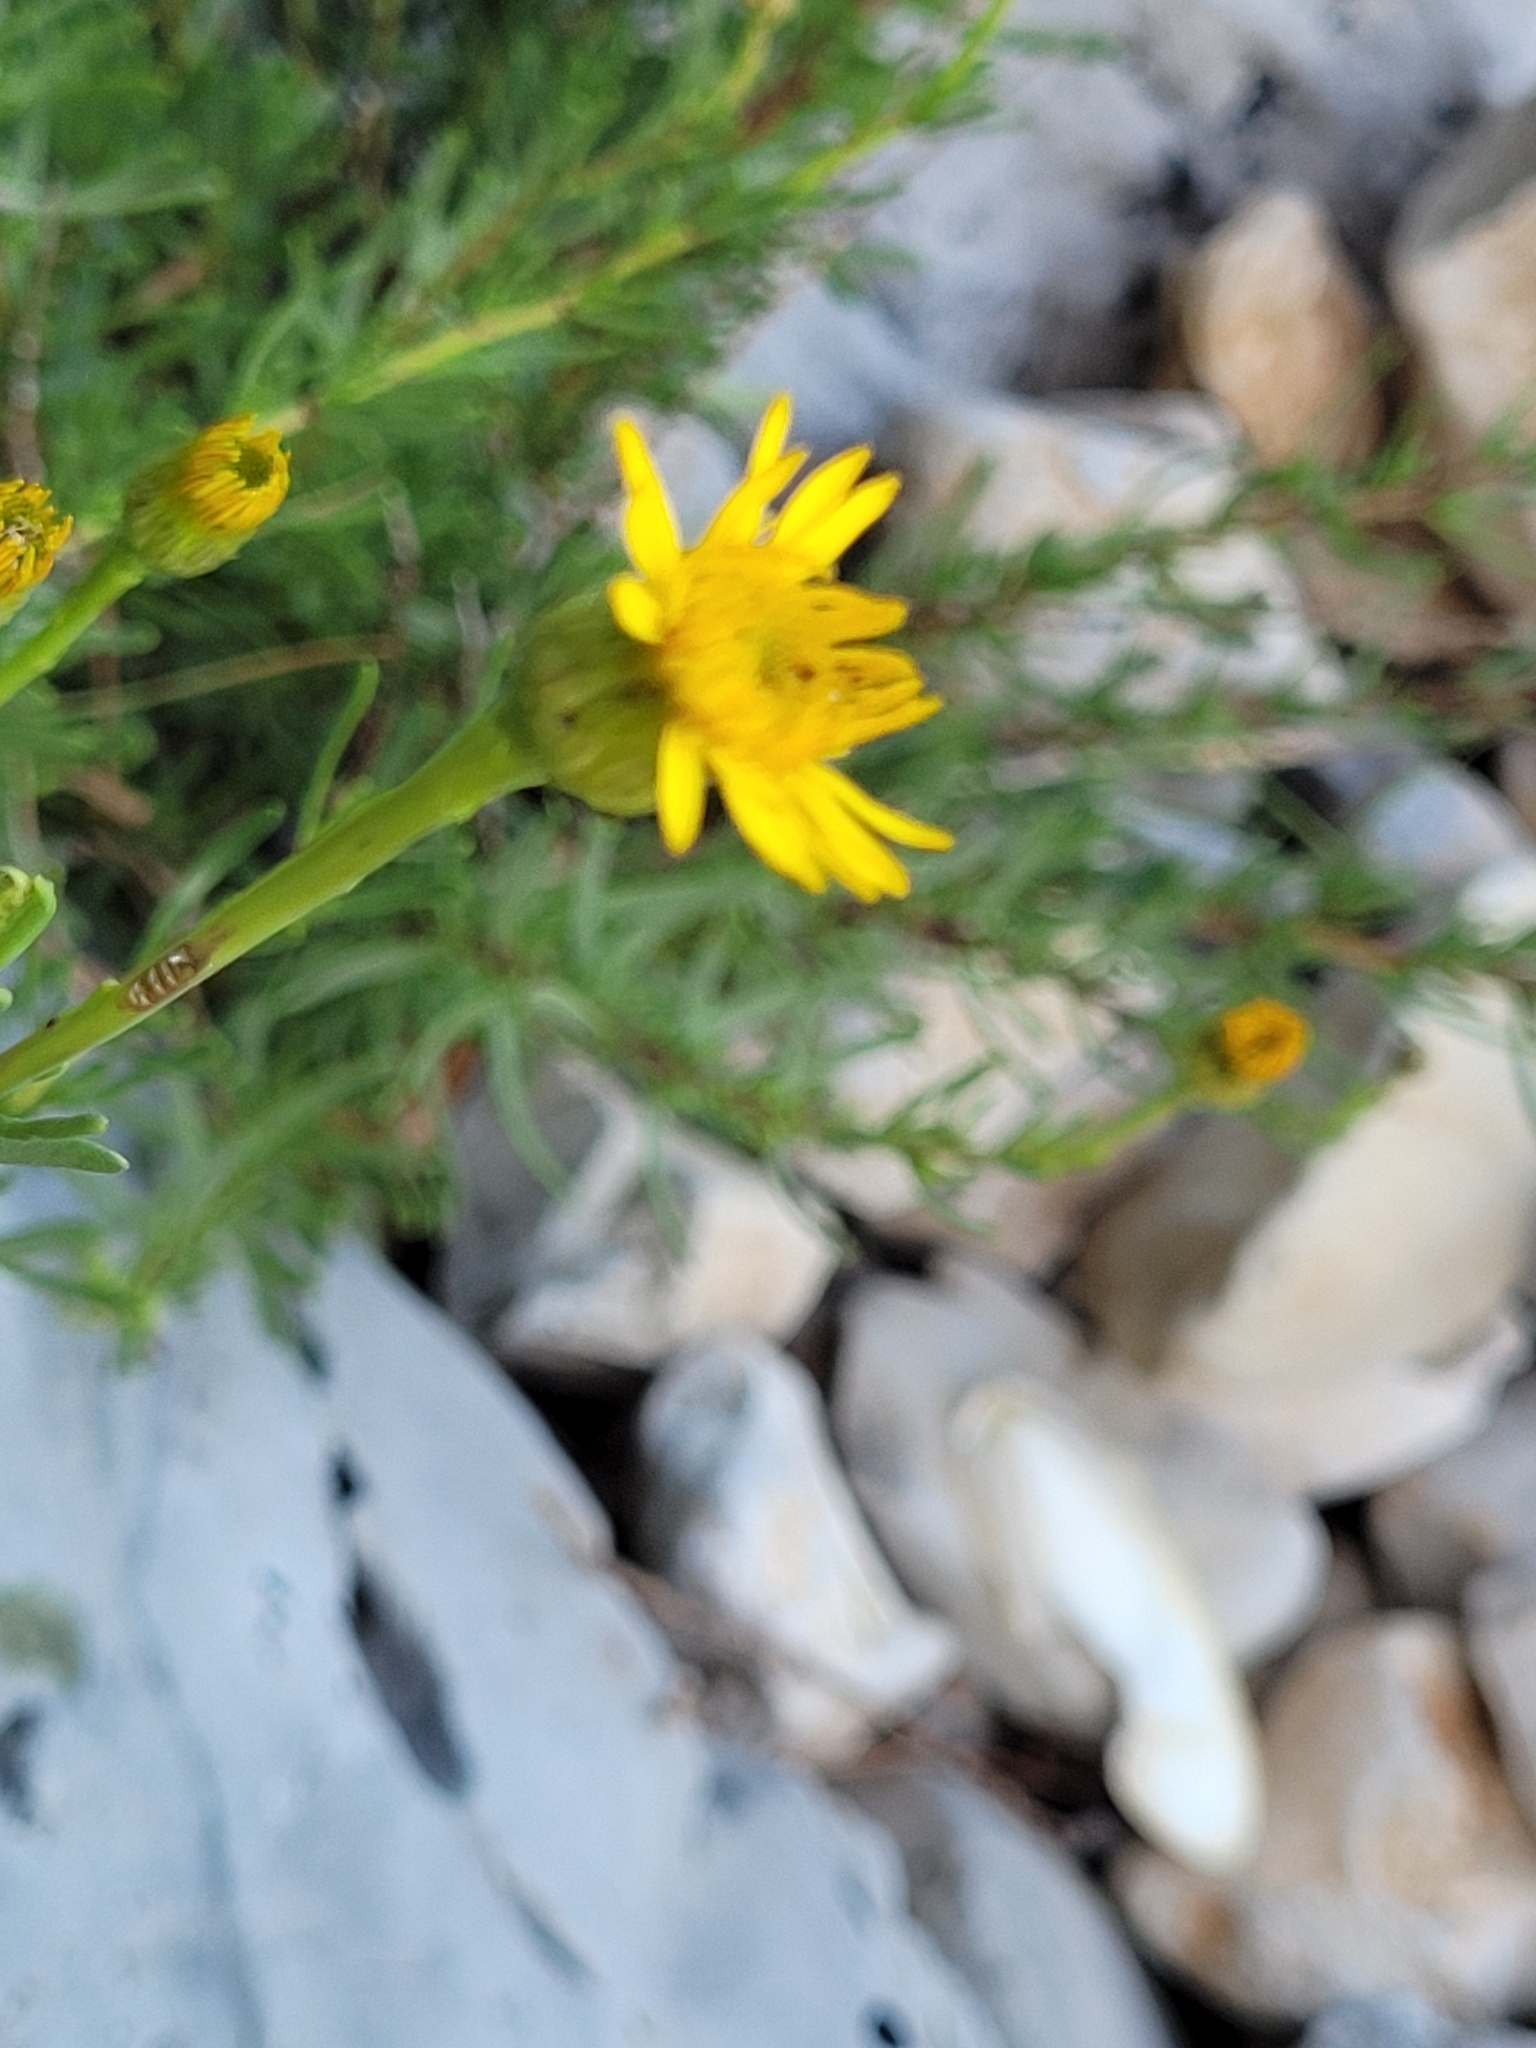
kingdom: Plantae
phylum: Tracheophyta
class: Magnoliopsida
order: Asterales
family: Asteraceae
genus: Limbarda
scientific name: Limbarda crithmoides
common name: Golden samphire
